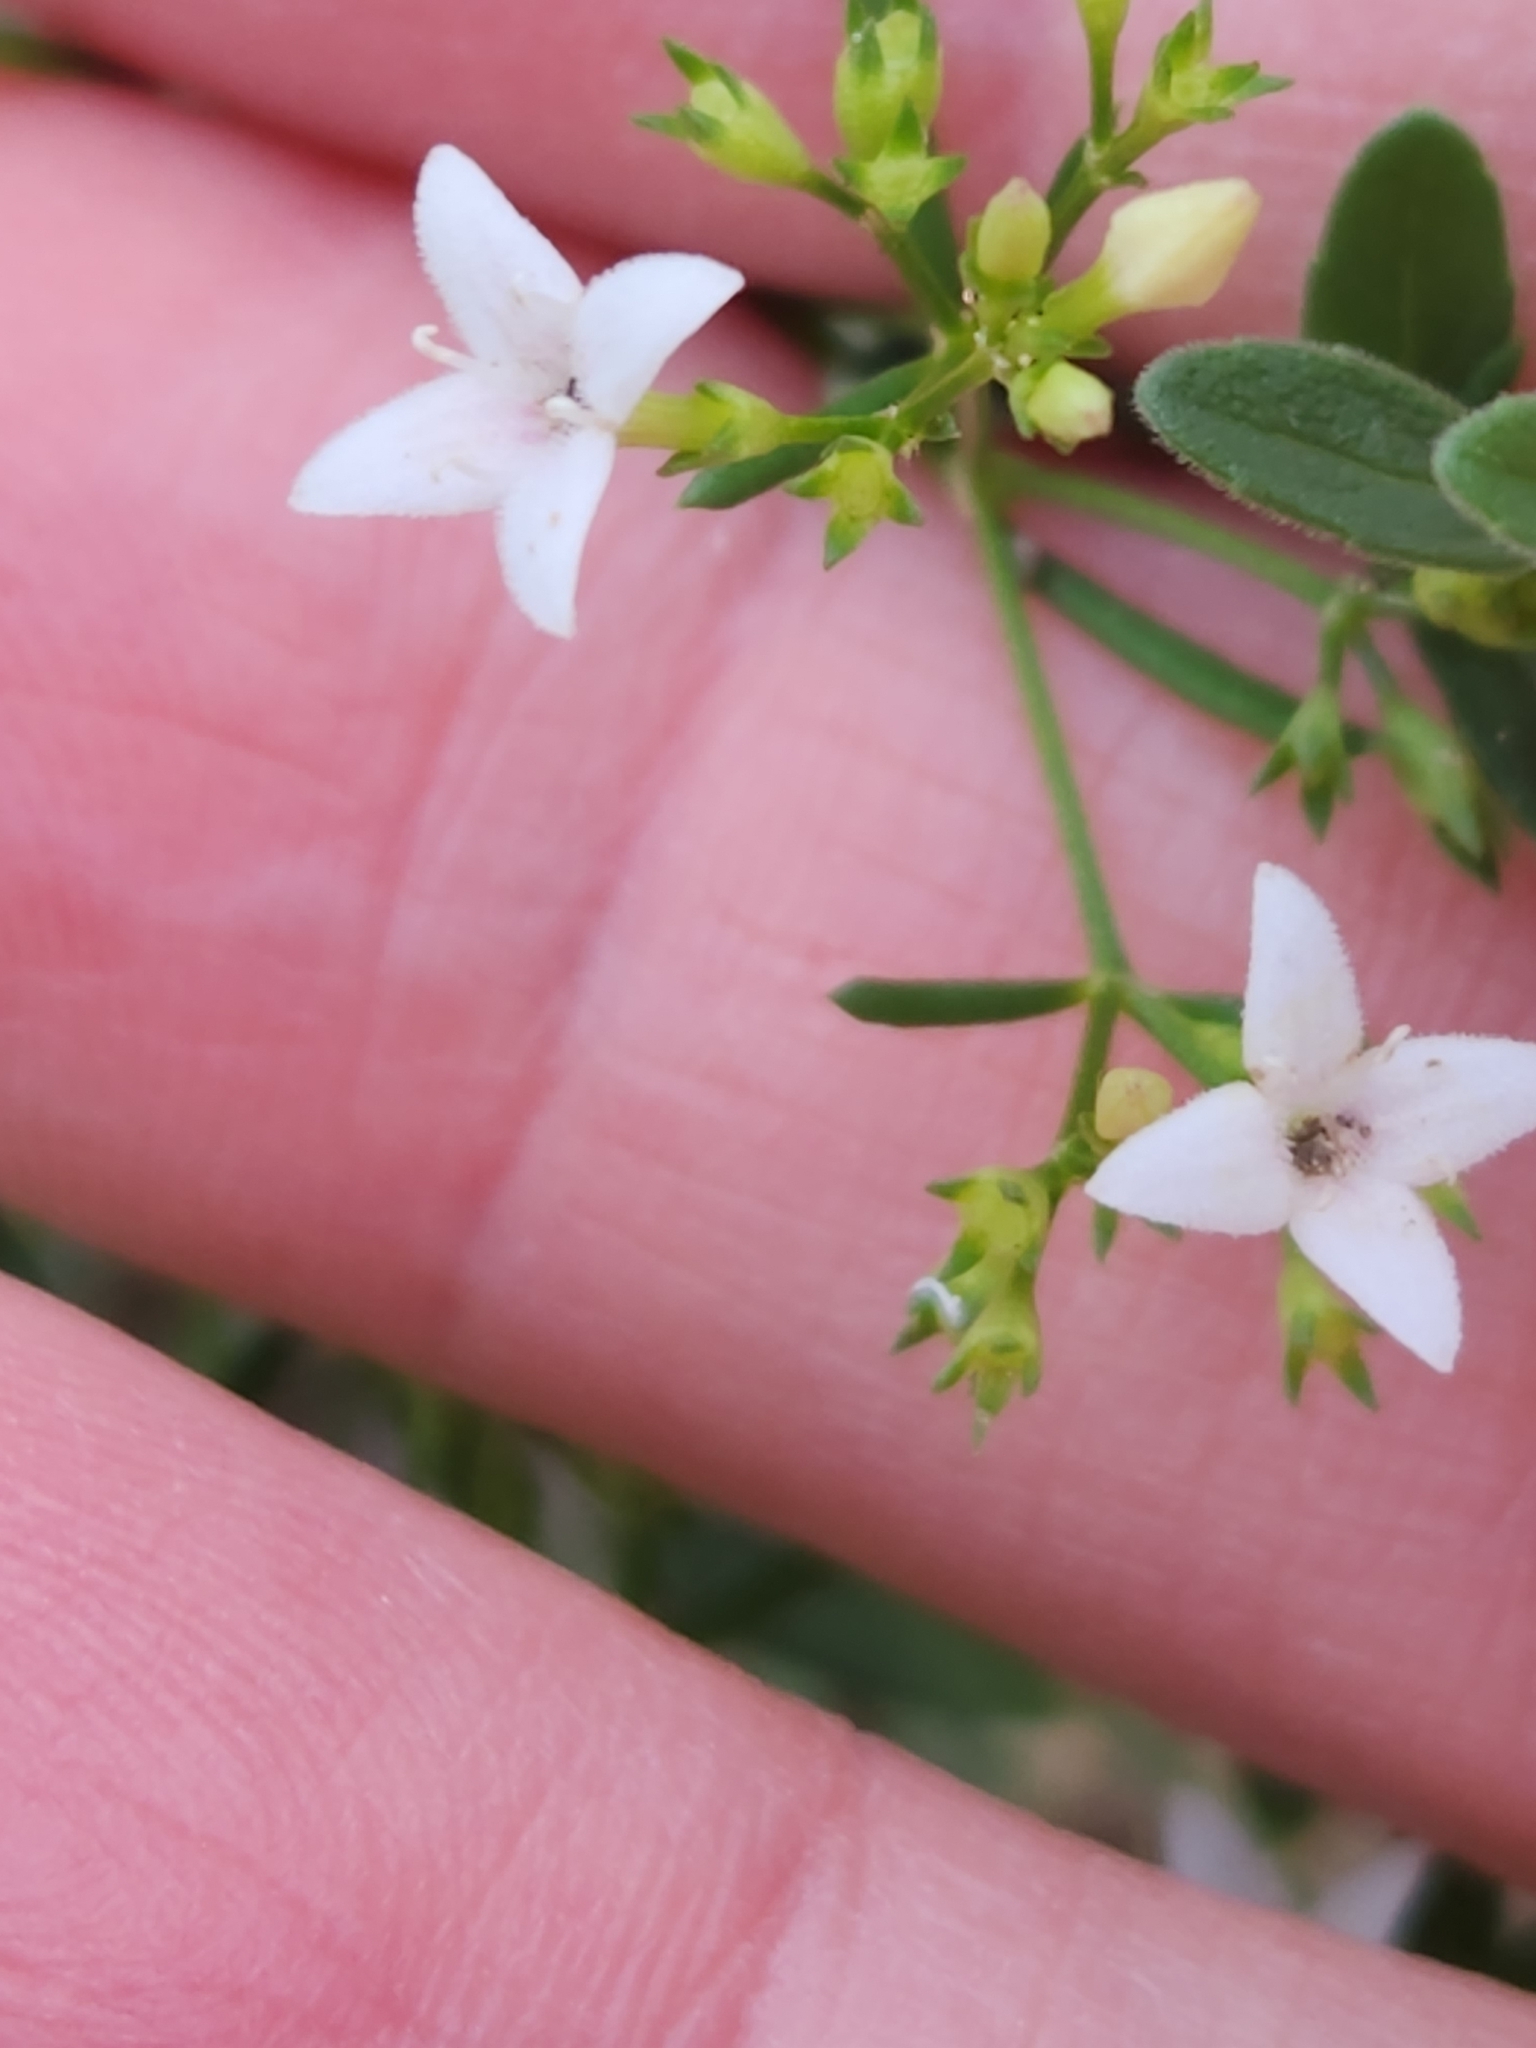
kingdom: Plantae
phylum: Tracheophyta
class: Magnoliopsida
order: Gentianales
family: Rubiaceae
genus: Stenaria
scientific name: Stenaria nigricans
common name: Diamondflowers
